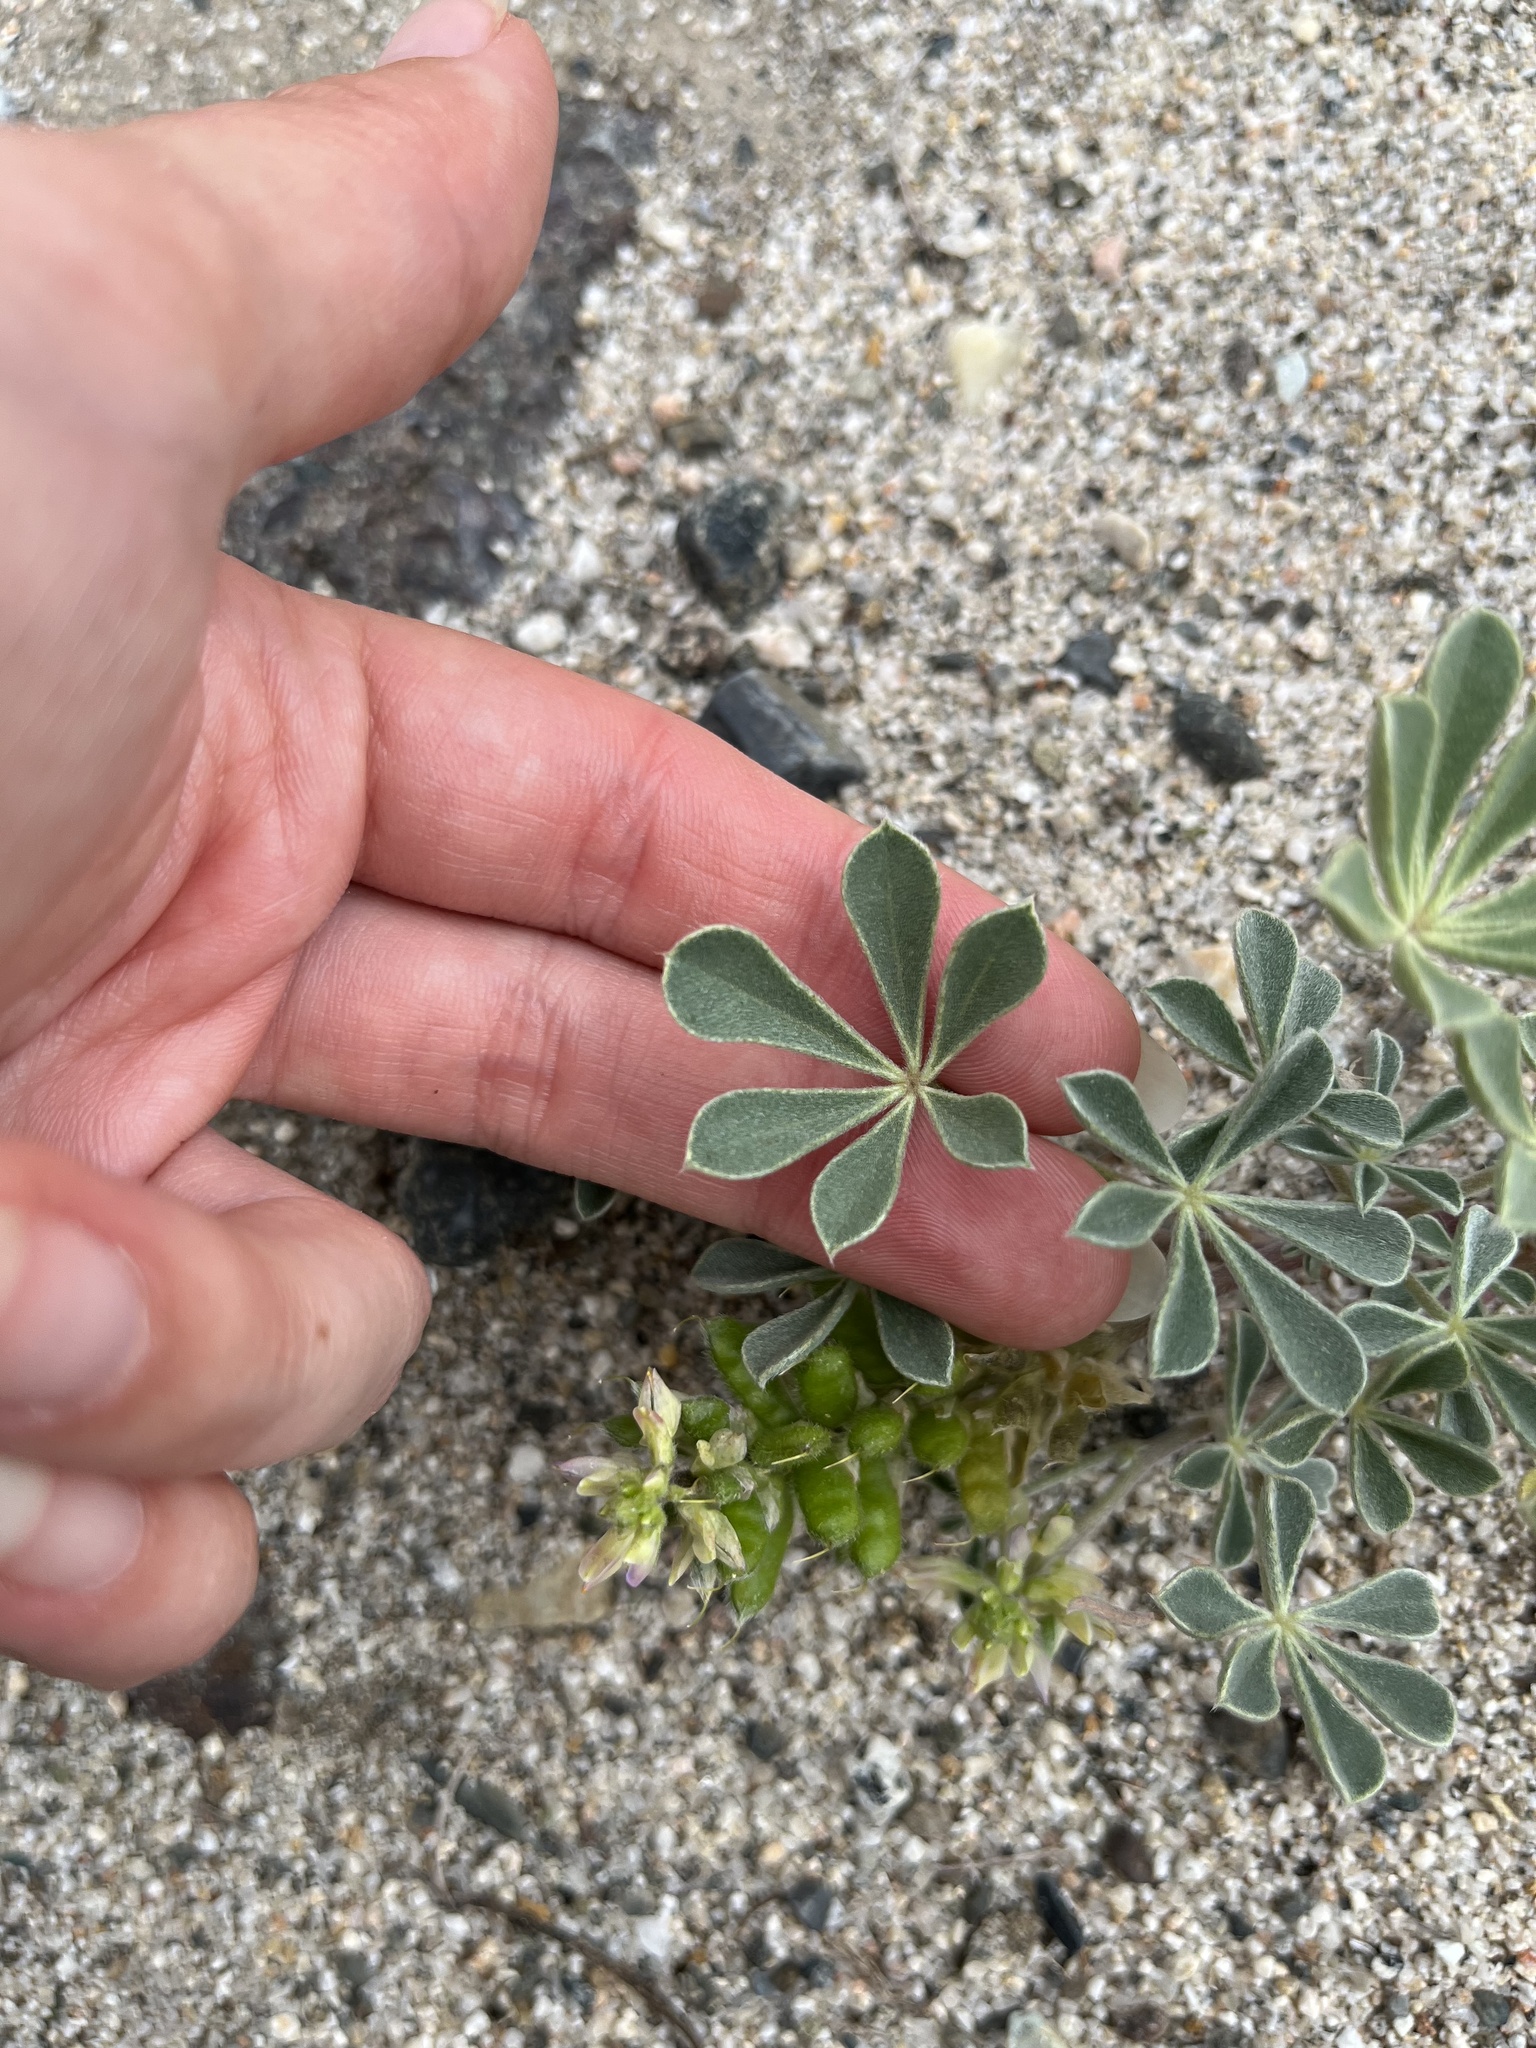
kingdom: Plantae
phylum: Tracheophyta
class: Magnoliopsida
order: Fabales
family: Fabaceae
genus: Lupinus
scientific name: Lupinus pallidus
